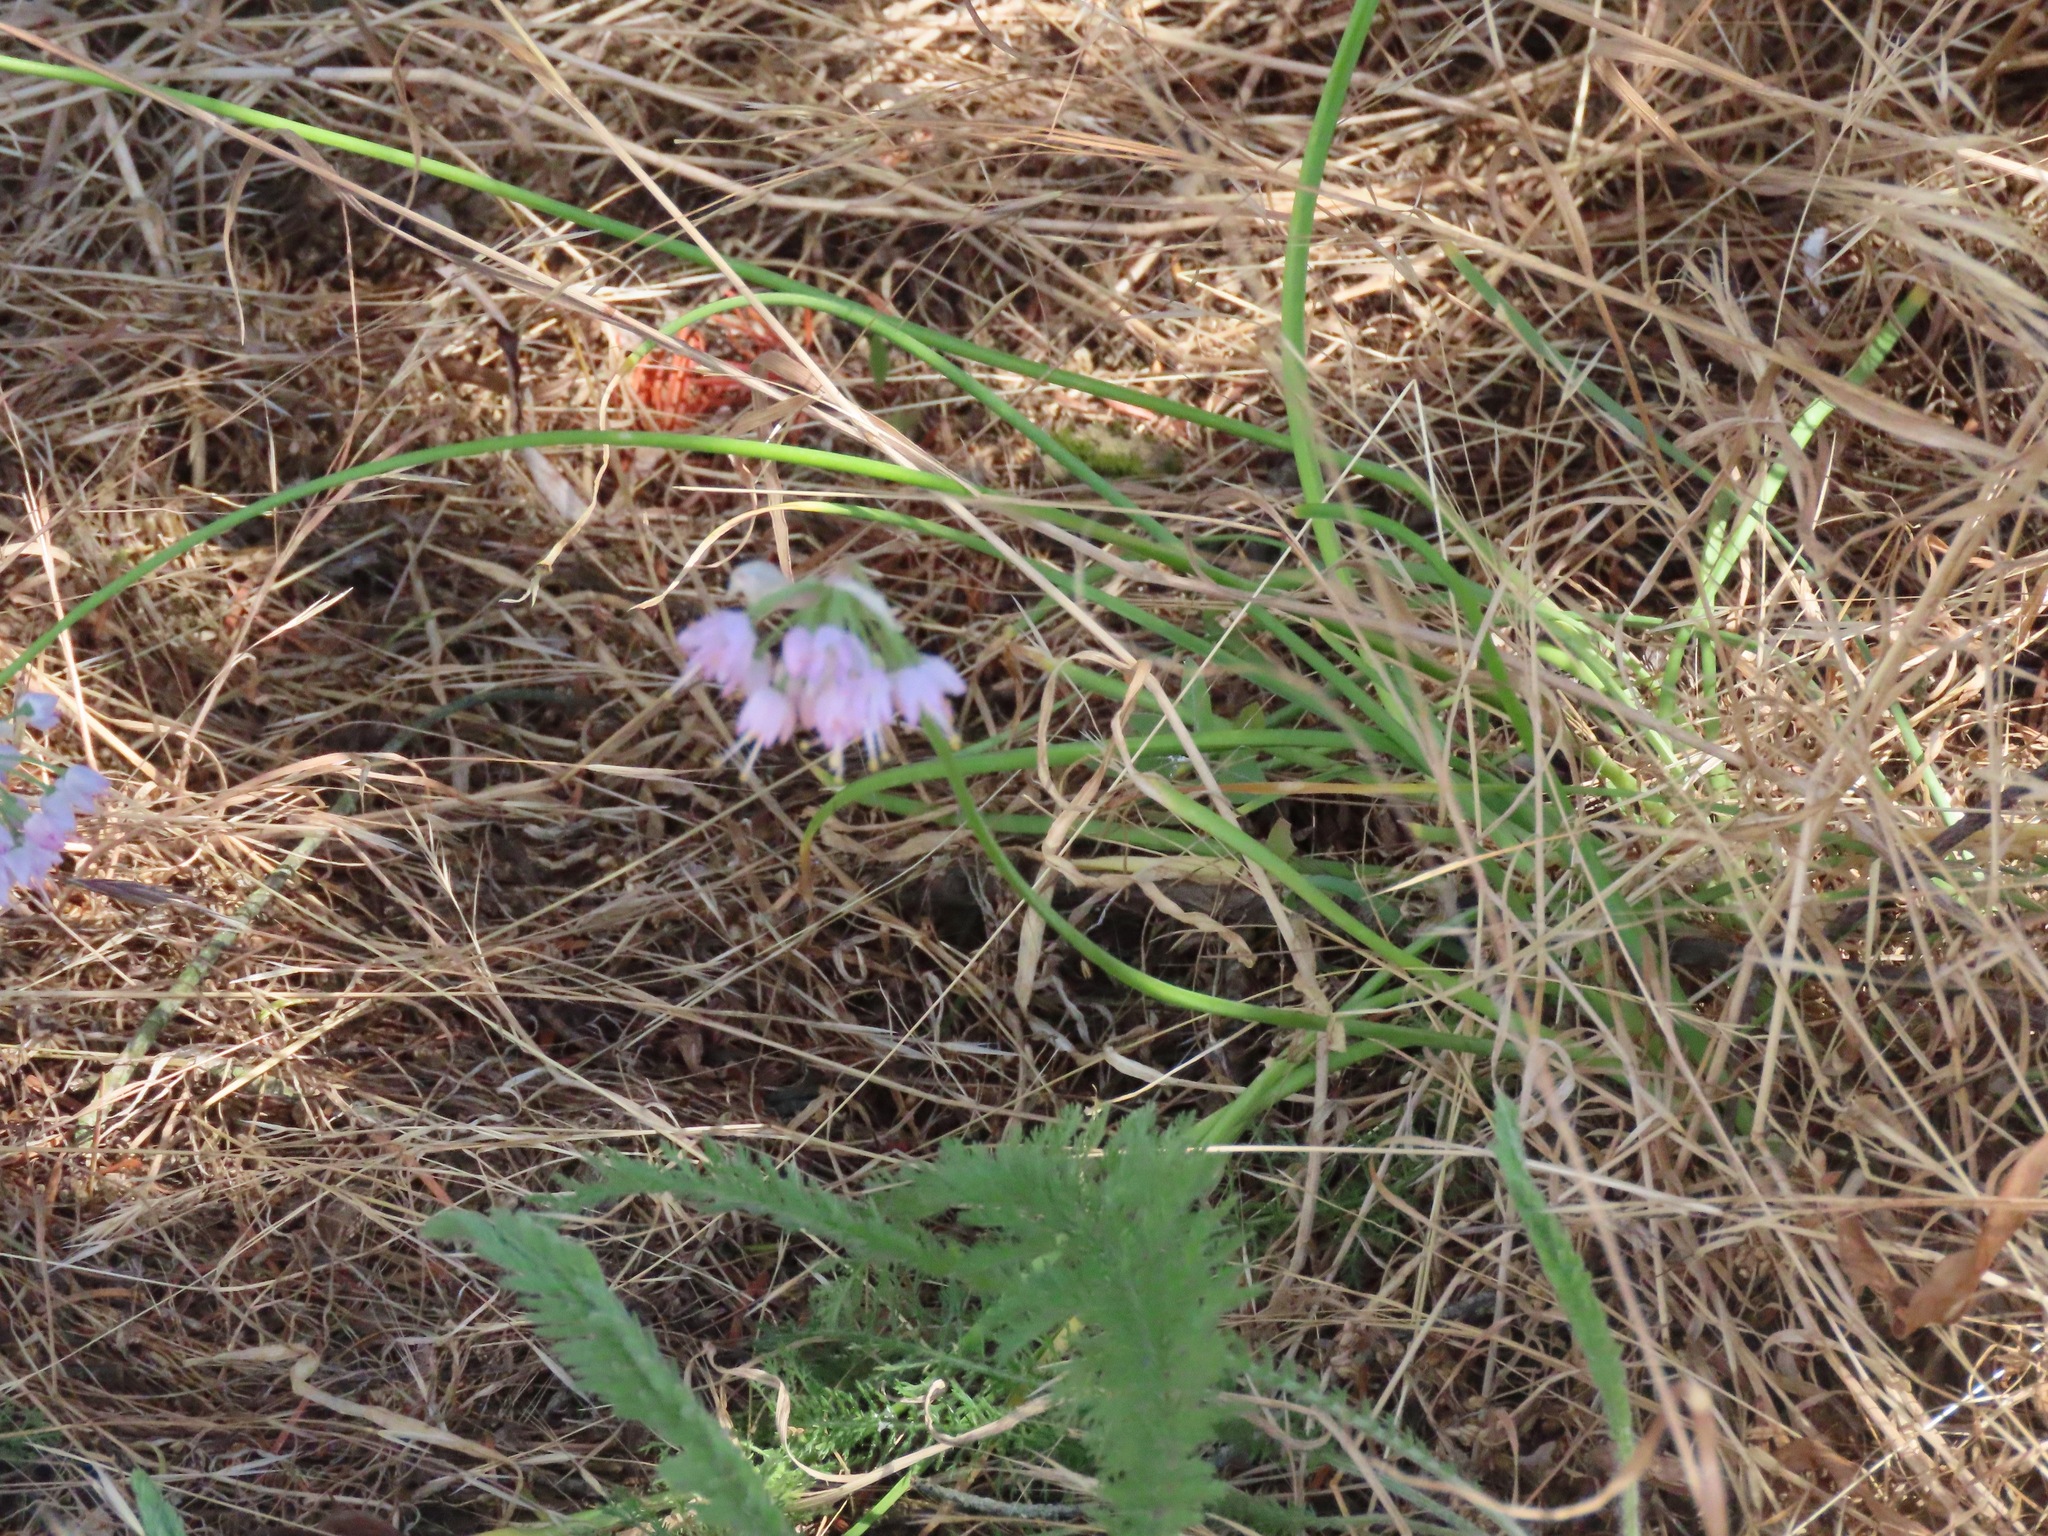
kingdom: Plantae
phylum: Tracheophyta
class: Liliopsida
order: Asparagales
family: Amaryllidaceae
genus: Allium
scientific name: Allium cernuum
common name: Nodding onion
